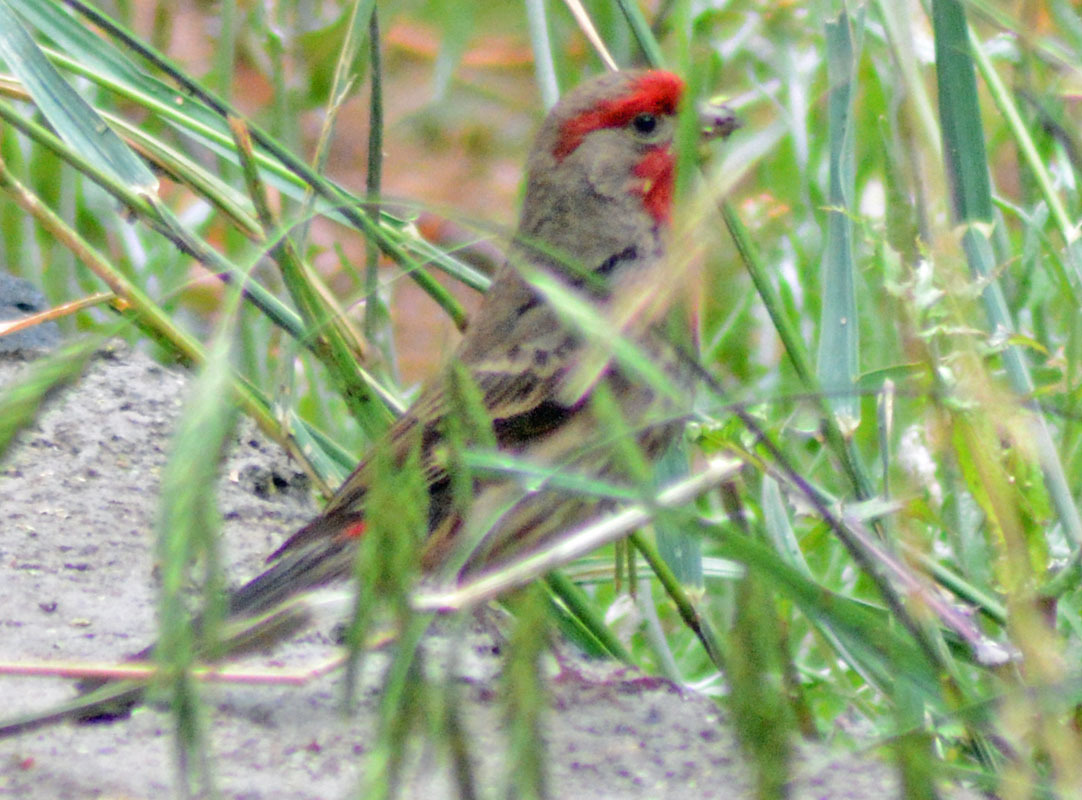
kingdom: Animalia
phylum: Chordata
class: Aves
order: Passeriformes
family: Fringillidae
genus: Haemorhous
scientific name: Haemorhous mexicanus
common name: House finch
